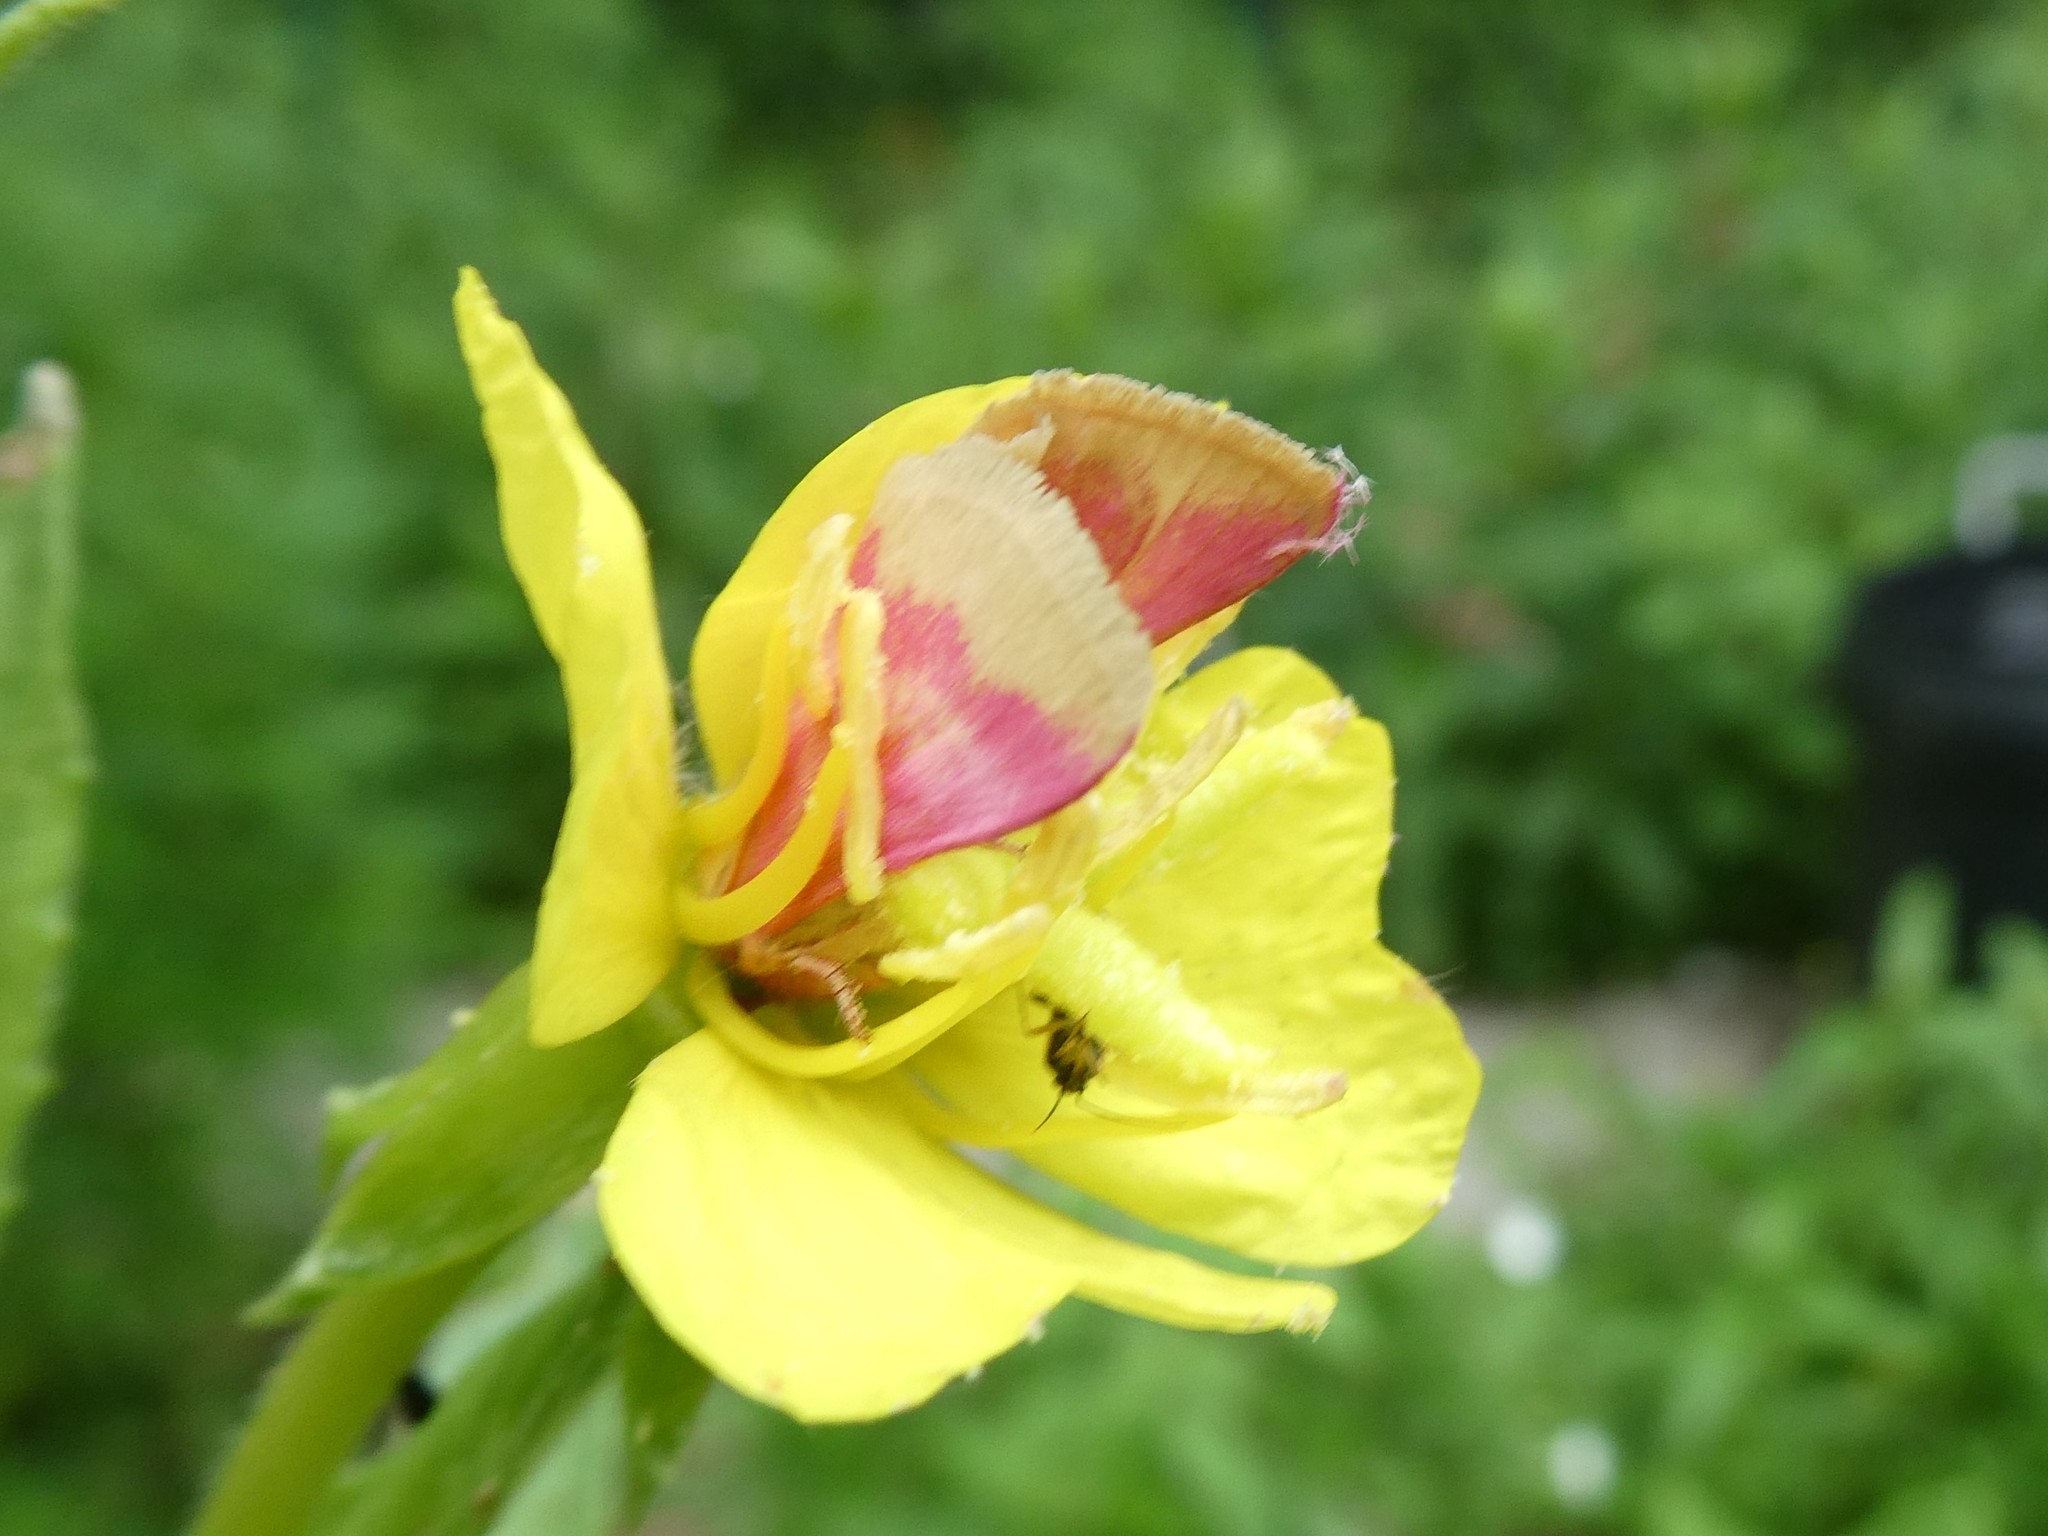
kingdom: Animalia
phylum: Arthropoda
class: Insecta
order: Lepidoptera
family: Noctuidae
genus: Schinia
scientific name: Schinia florida
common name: Primrose moth
